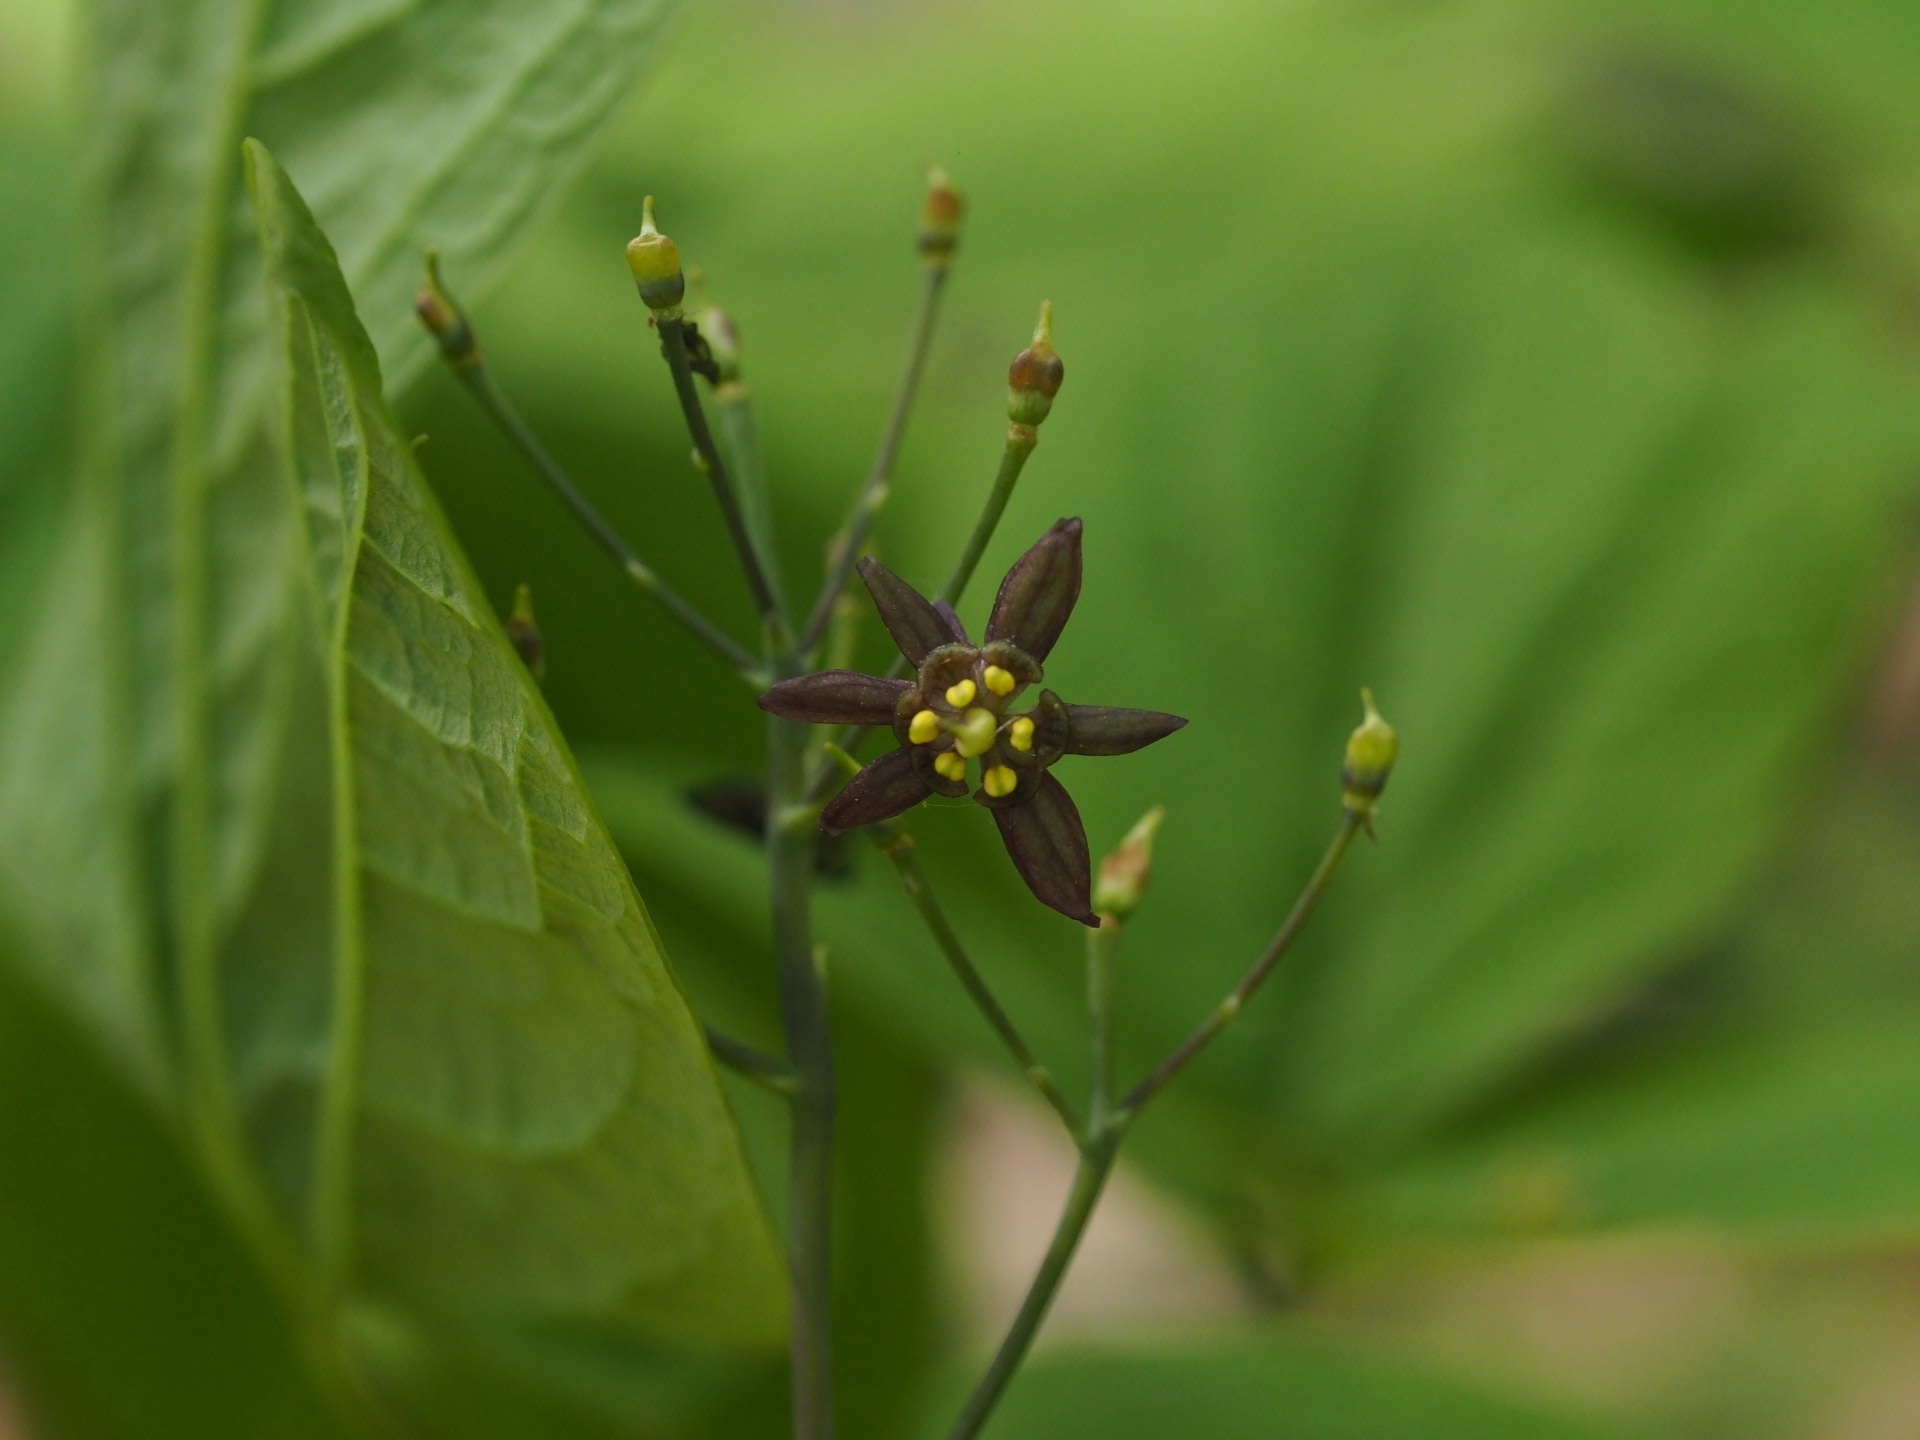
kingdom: Plantae
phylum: Tracheophyta
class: Magnoliopsida
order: Ranunculales
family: Berberidaceae
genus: Caulophyllum
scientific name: Caulophyllum giganteum
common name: Blue cohosh
